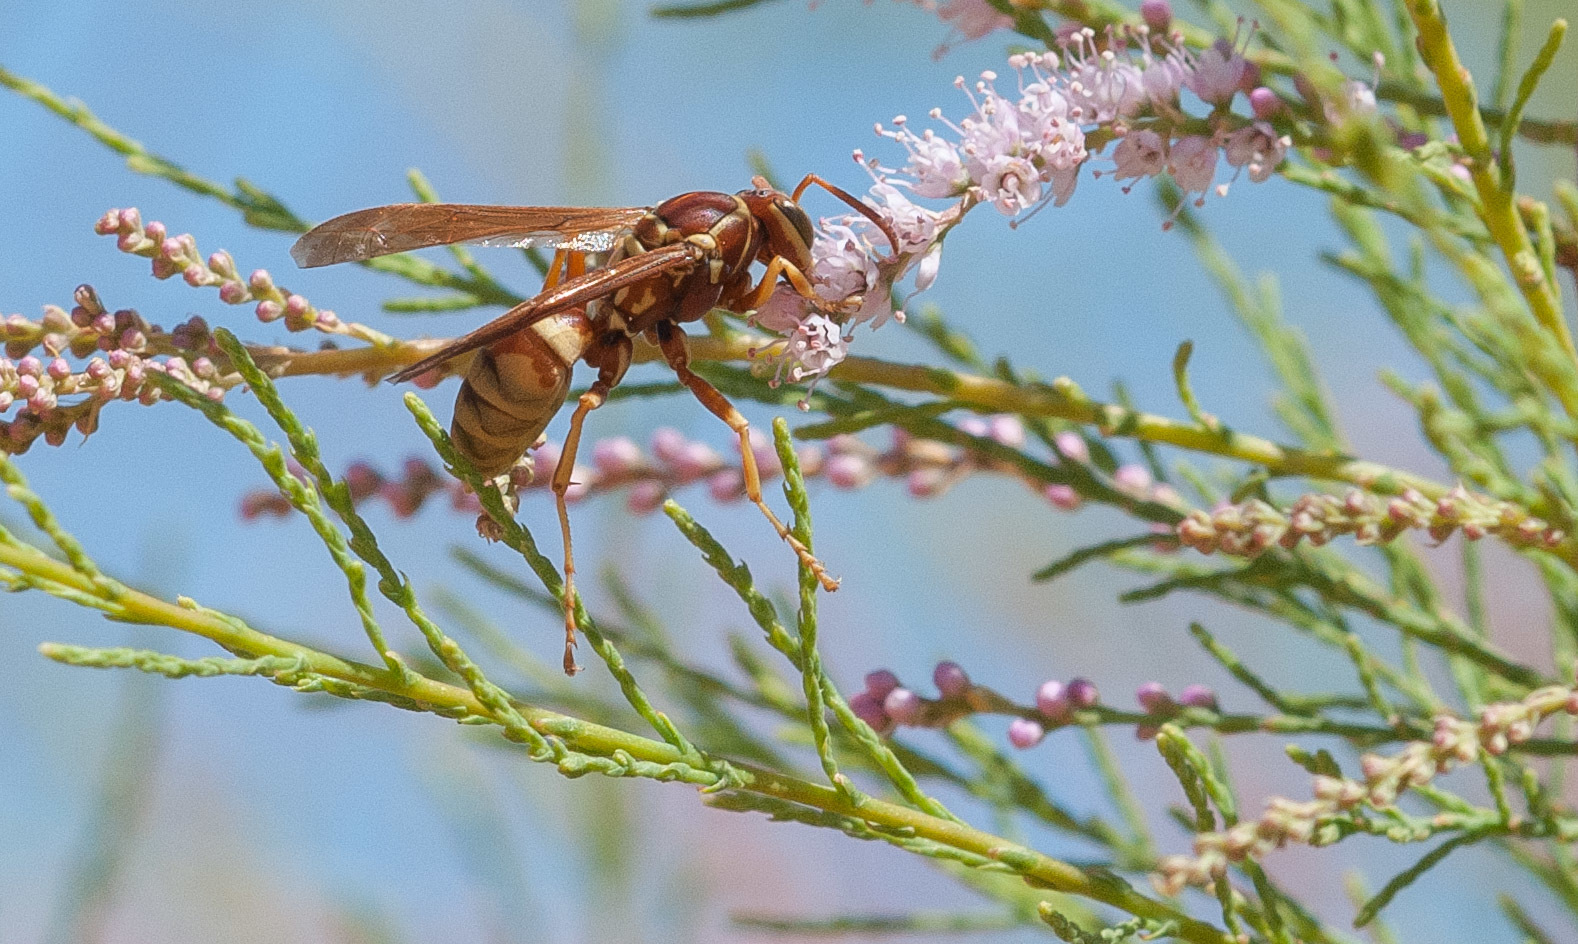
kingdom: Animalia
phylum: Arthropoda
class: Insecta
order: Hymenoptera
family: Eumenidae
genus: Polistes
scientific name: Polistes aurifer
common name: Paper wasp
